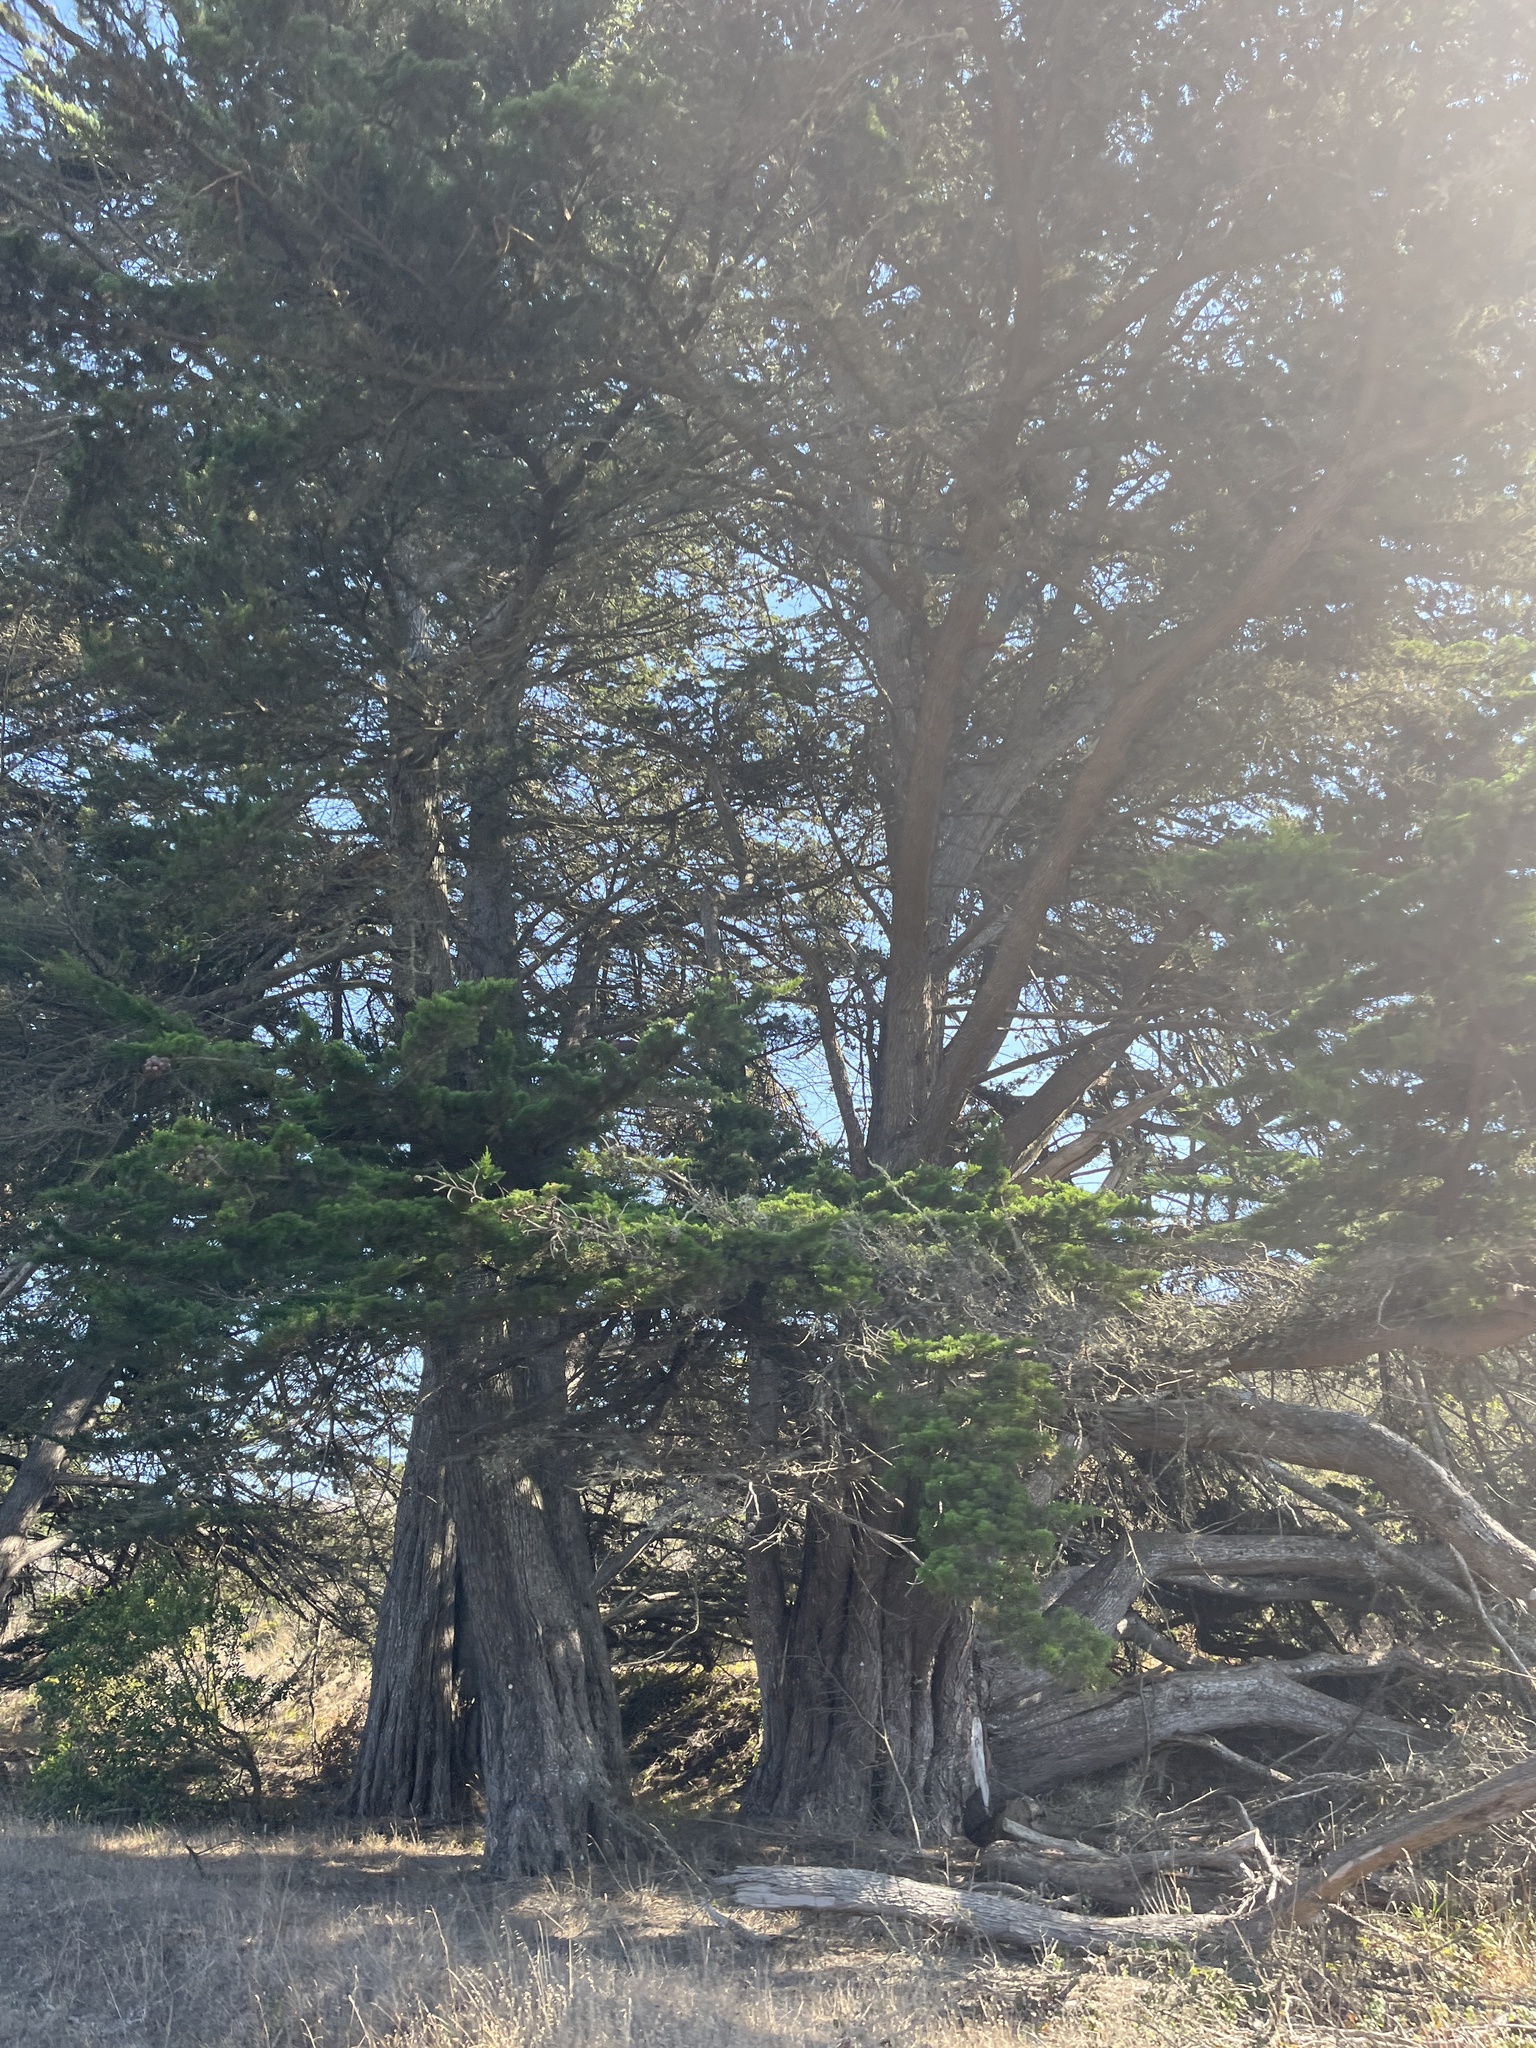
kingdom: Plantae
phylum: Tracheophyta
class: Pinopsida
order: Pinales
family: Cupressaceae
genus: Cupressus
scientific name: Cupressus macrocarpa
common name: Monterey cypress
